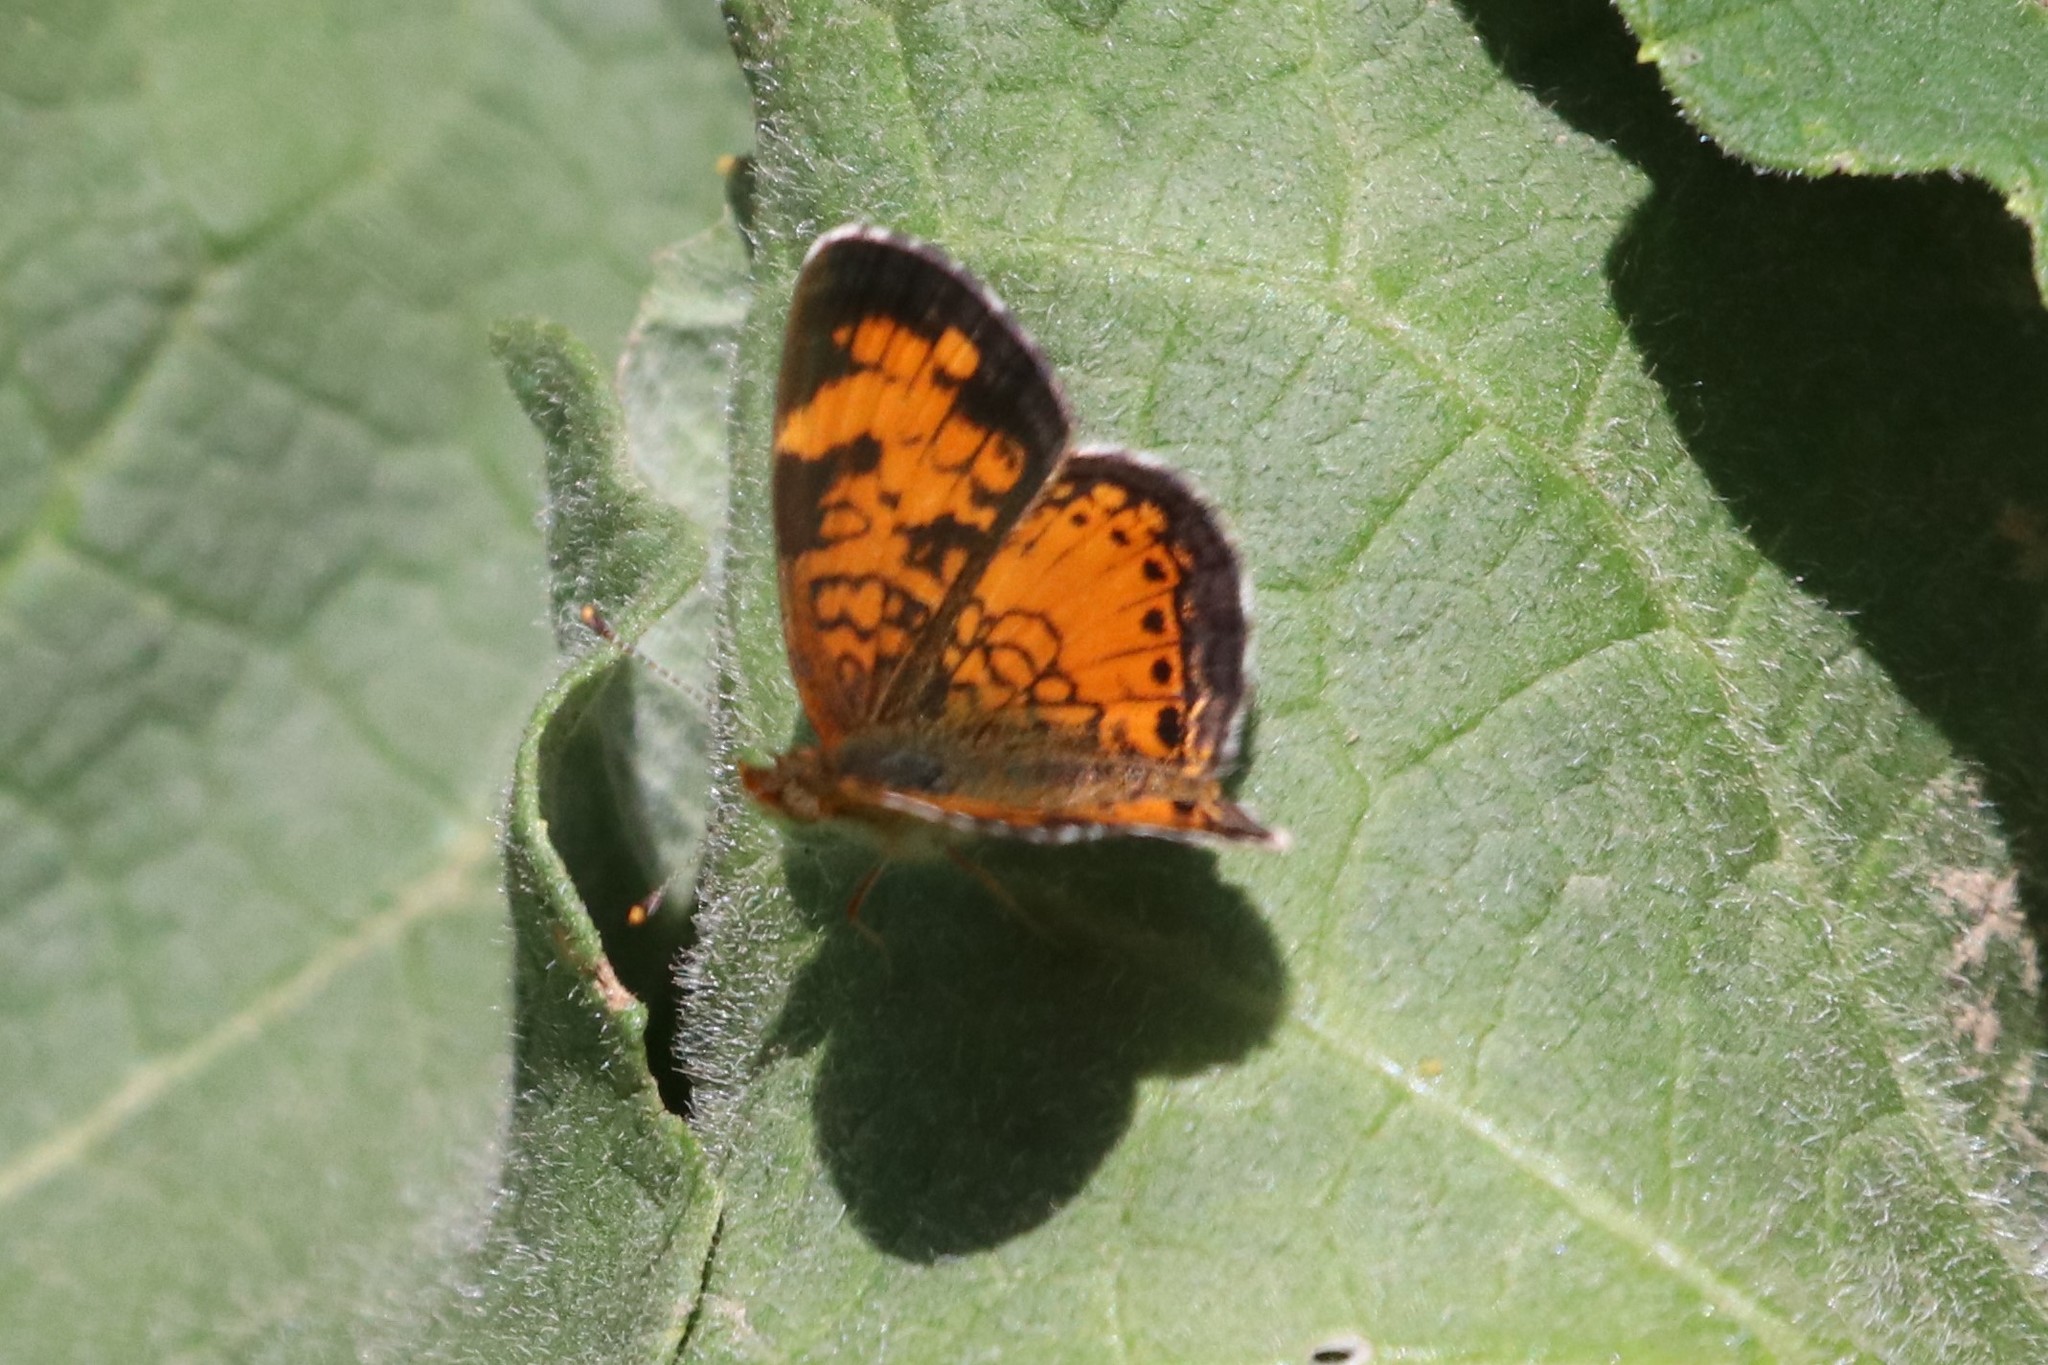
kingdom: Animalia
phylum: Arthropoda
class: Insecta
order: Lepidoptera
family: Nymphalidae
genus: Phyciodes
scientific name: Phyciodes tharos
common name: Pearl crescent
